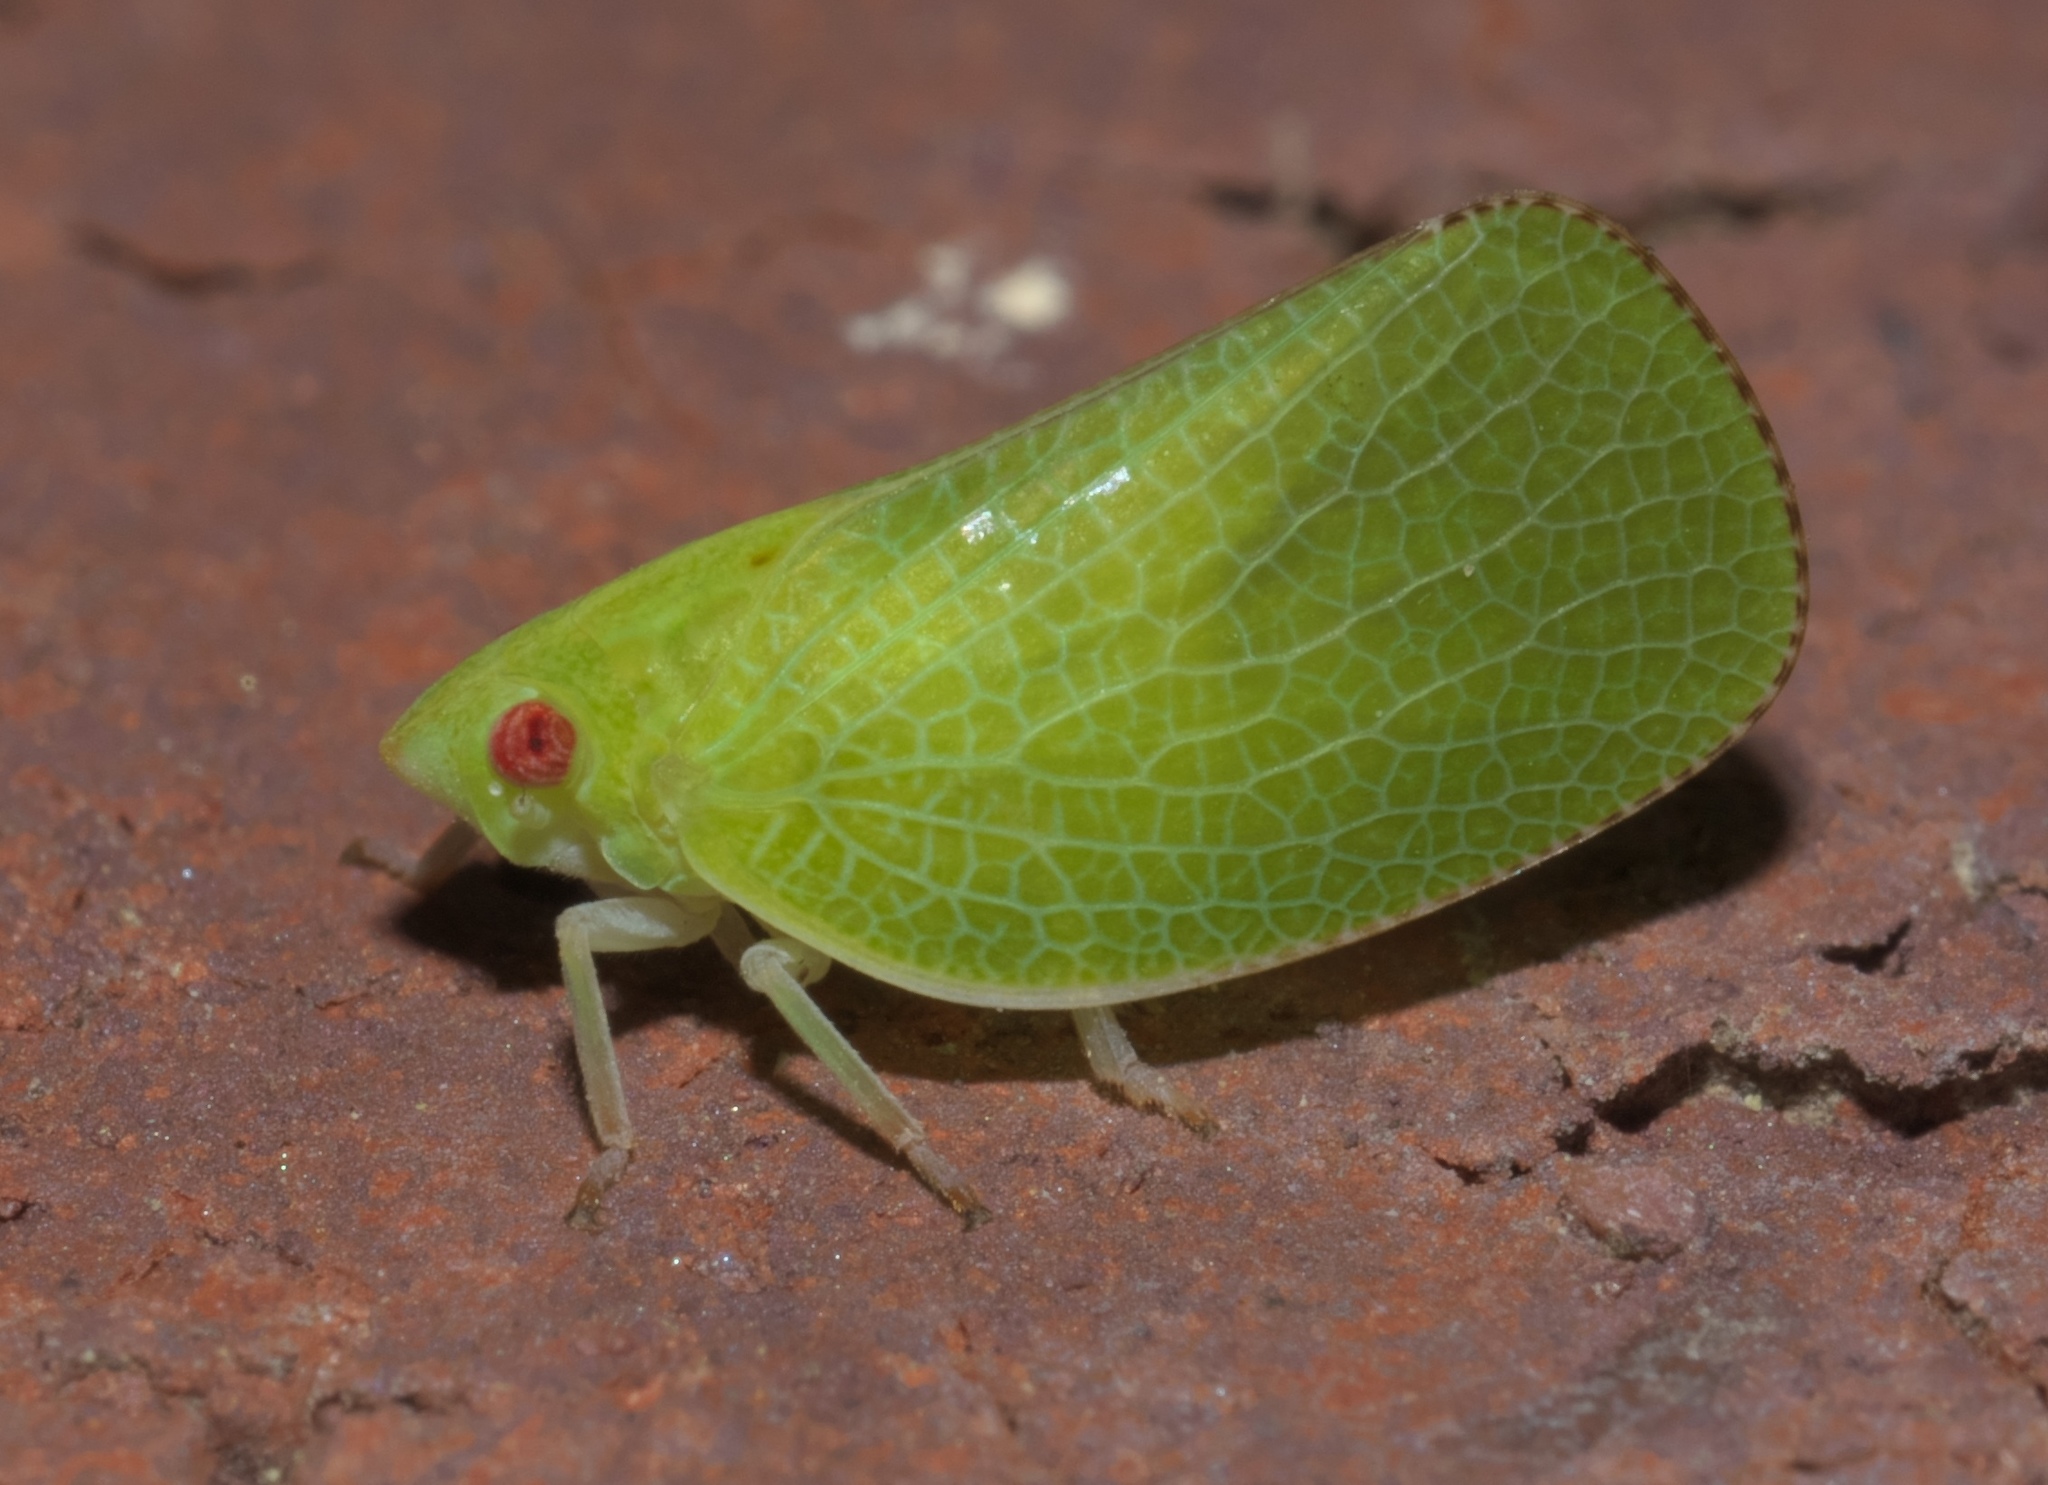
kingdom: Animalia
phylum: Arthropoda
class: Insecta
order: Hemiptera
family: Acanaloniidae
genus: Acanalonia
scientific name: Acanalonia conica
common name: Green cone-headed planthopper
